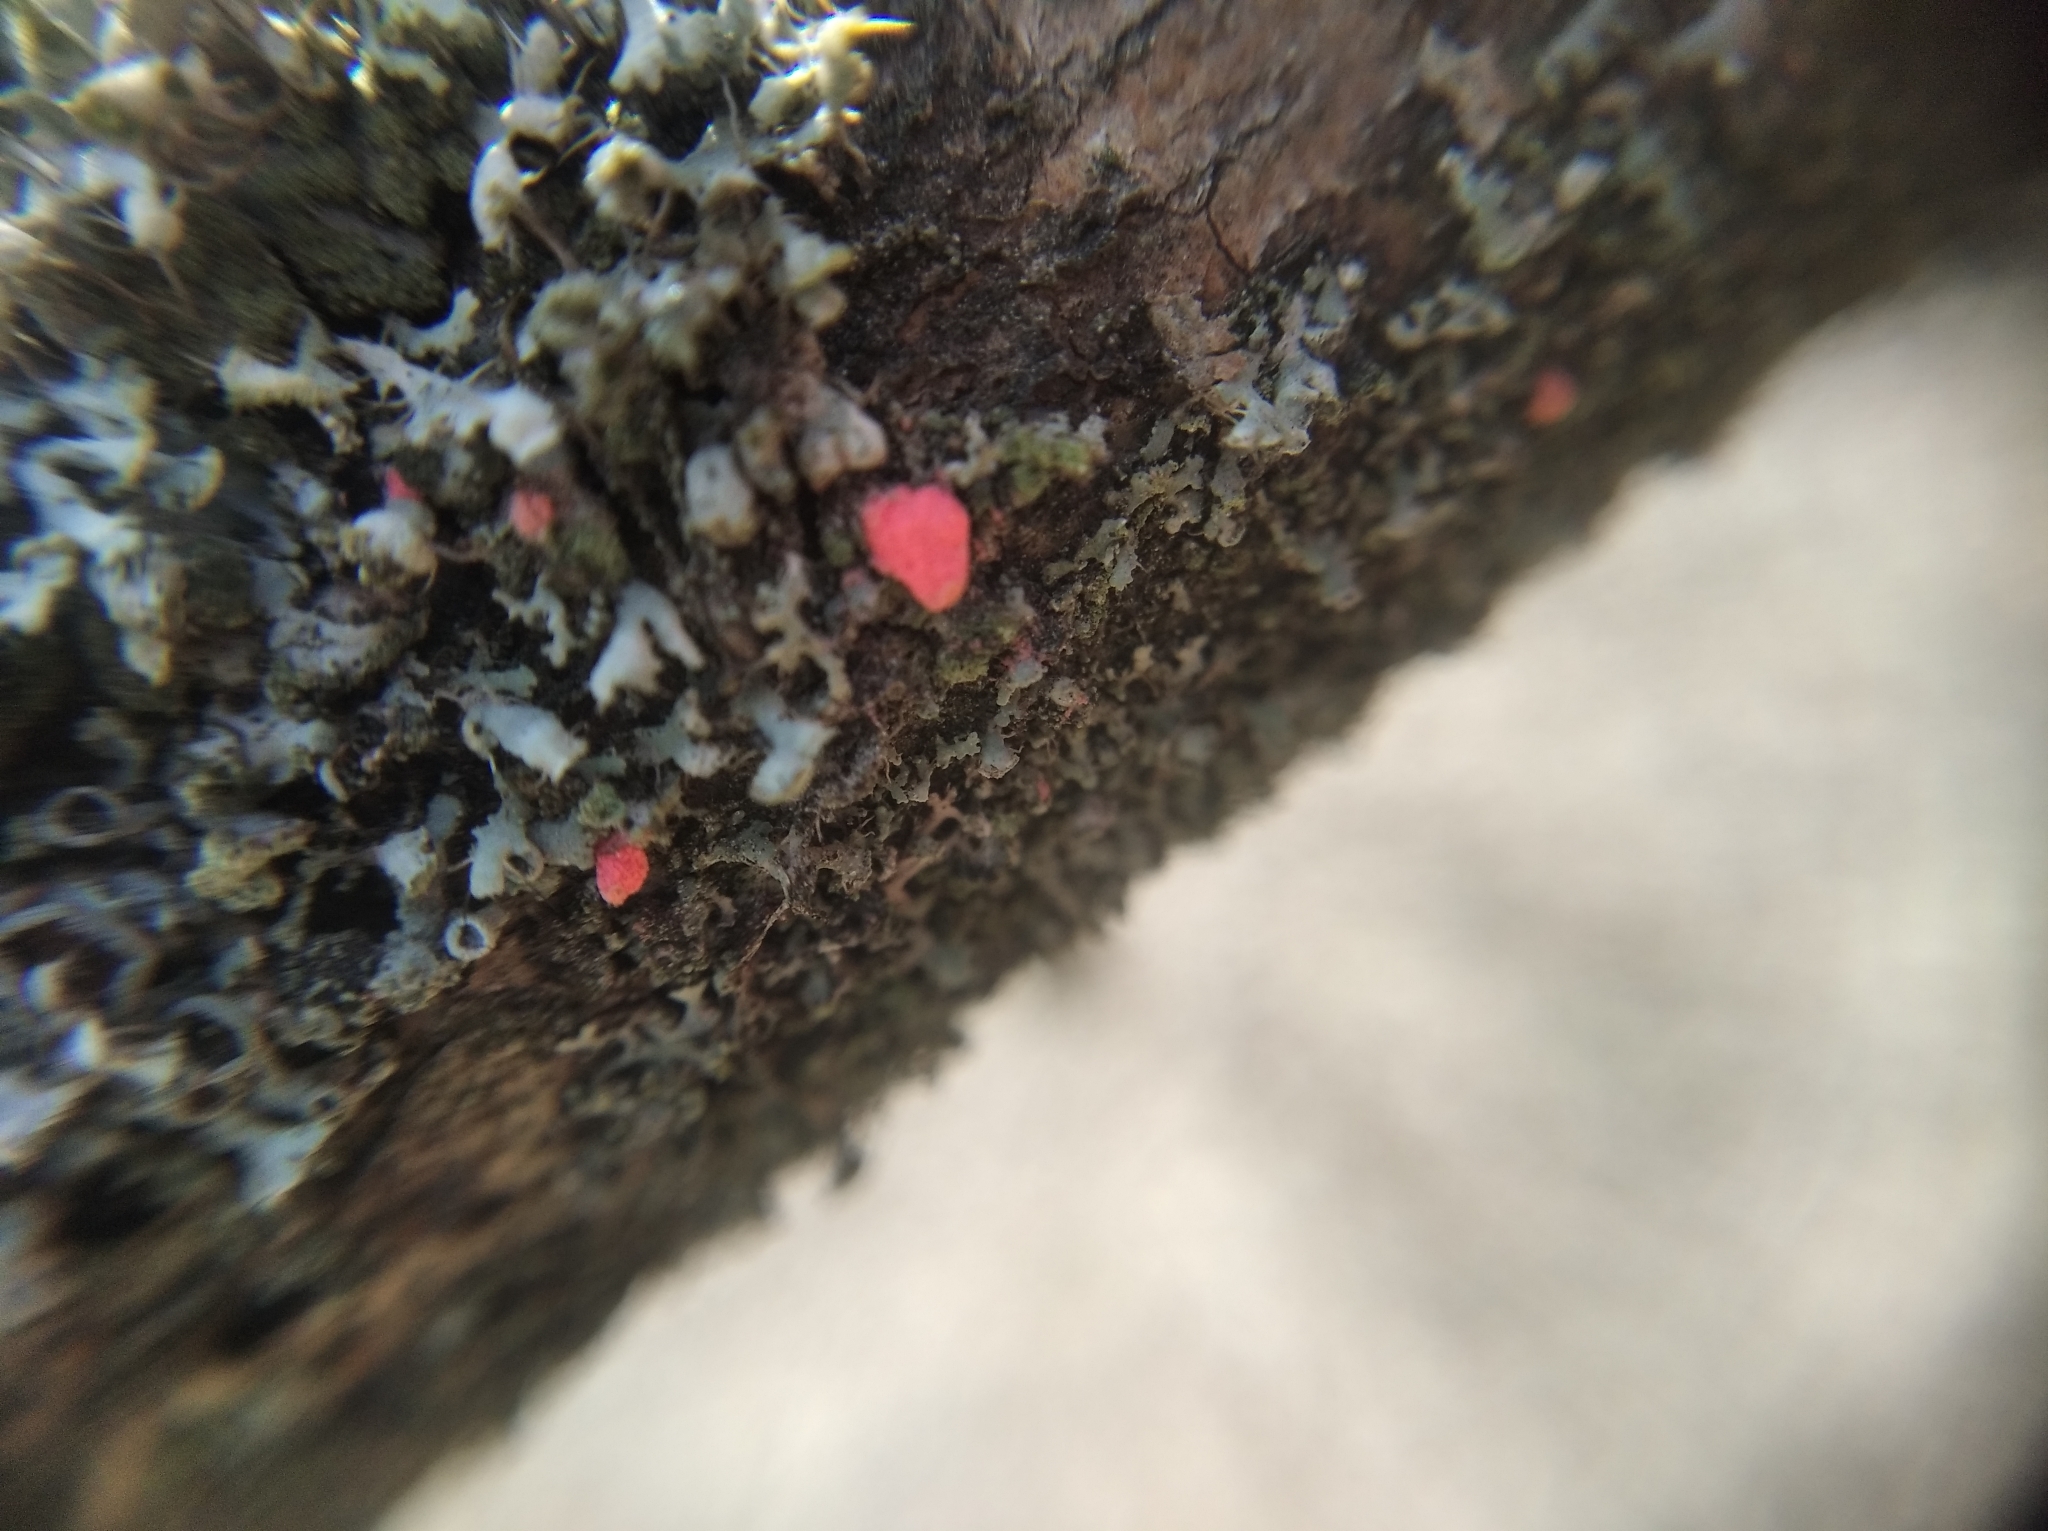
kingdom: Fungi
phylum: Ascomycota
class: Sordariomycetes
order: Hypocreales
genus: Illosporiopsis
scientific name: Illosporiopsis christiansenii
